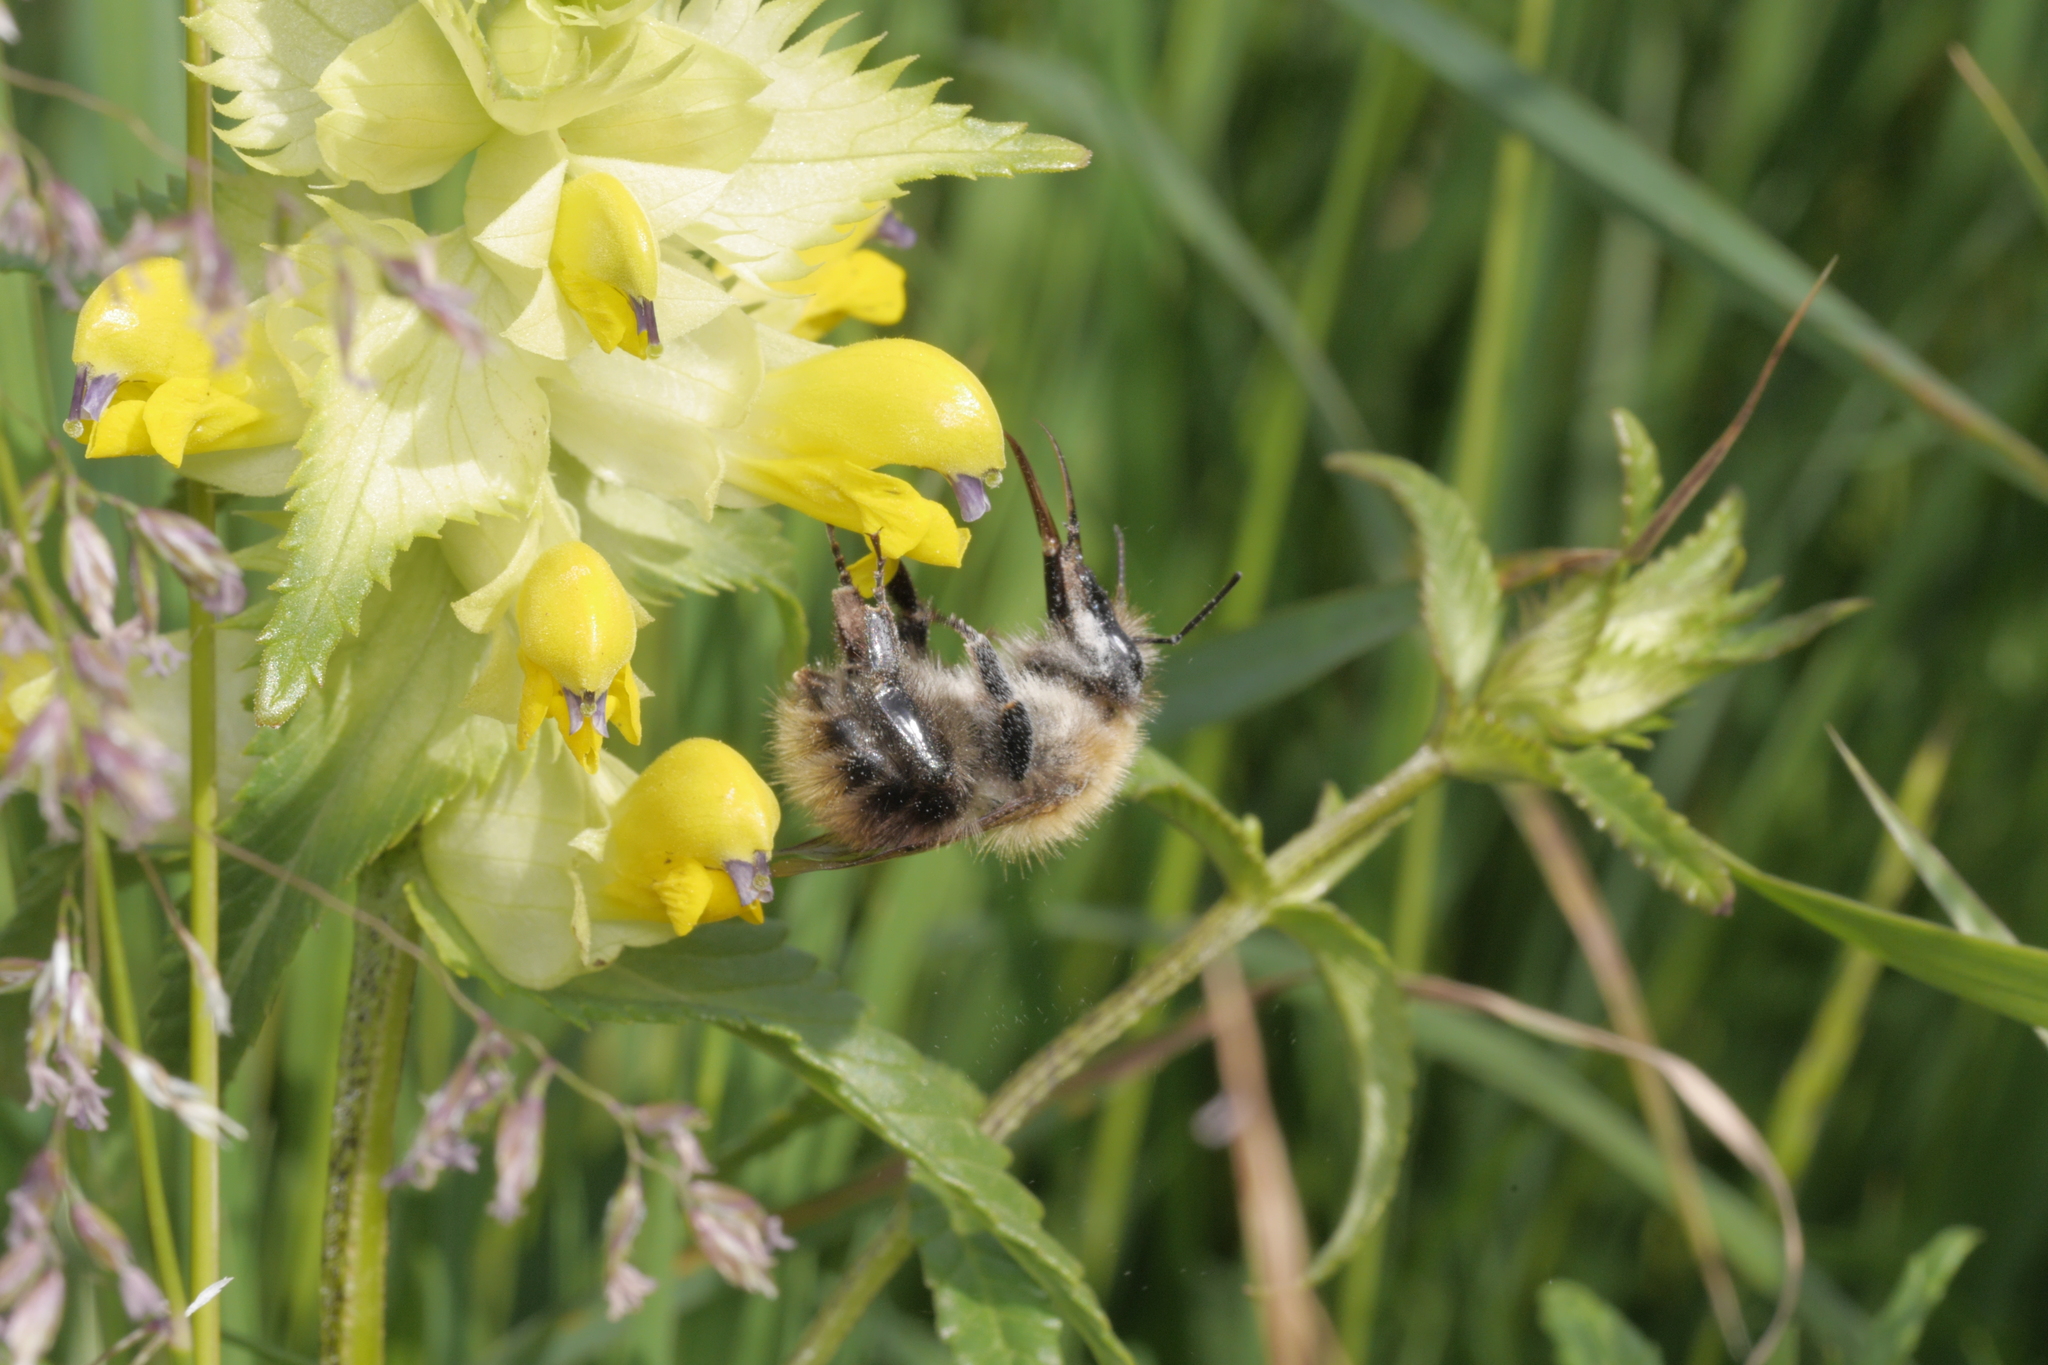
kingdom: Animalia
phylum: Arthropoda
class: Insecta
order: Hymenoptera
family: Apidae
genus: Bombus
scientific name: Bombus pascuorum
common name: Common carder bee
